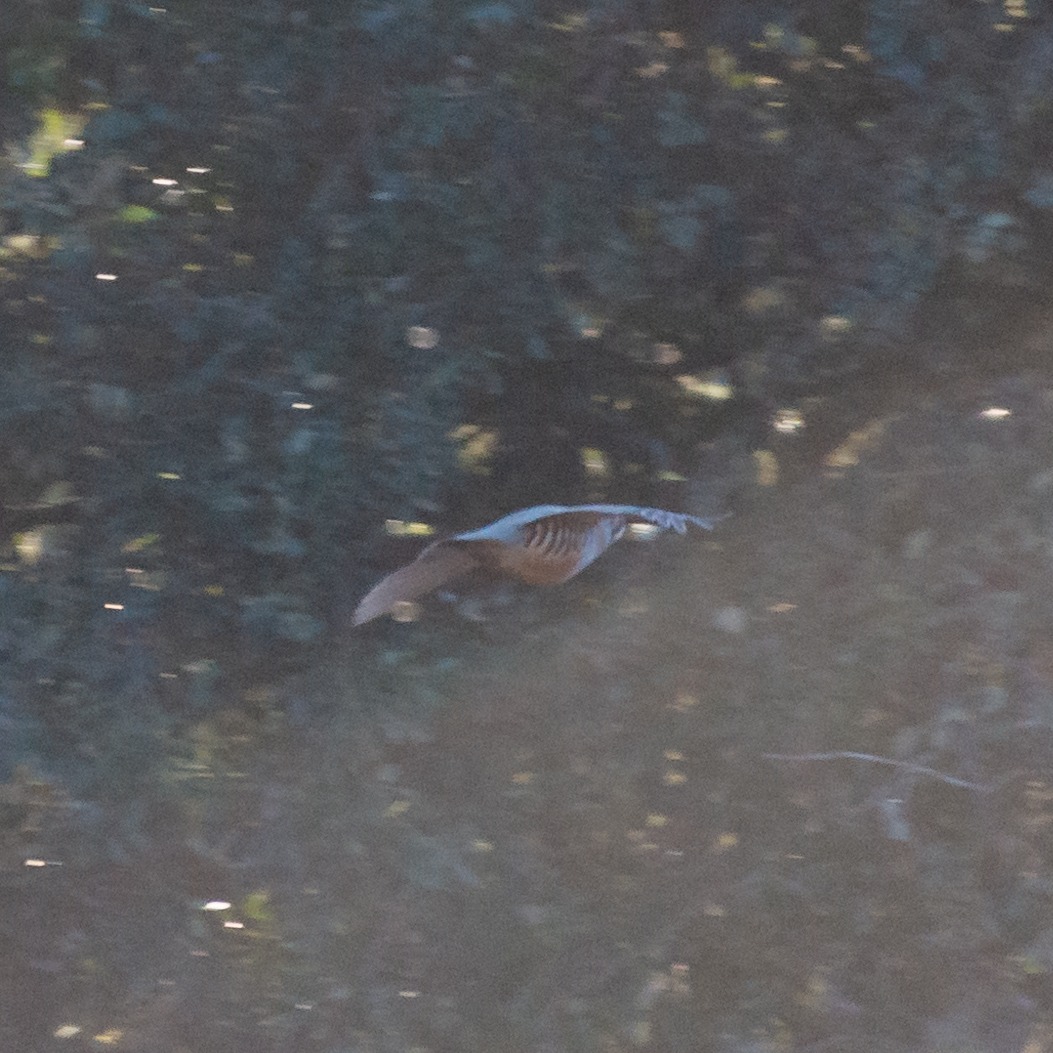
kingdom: Animalia
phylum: Chordata
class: Aves
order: Galliformes
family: Phasianidae
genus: Alectoris
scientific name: Alectoris rufa
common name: Red-legged partridge
